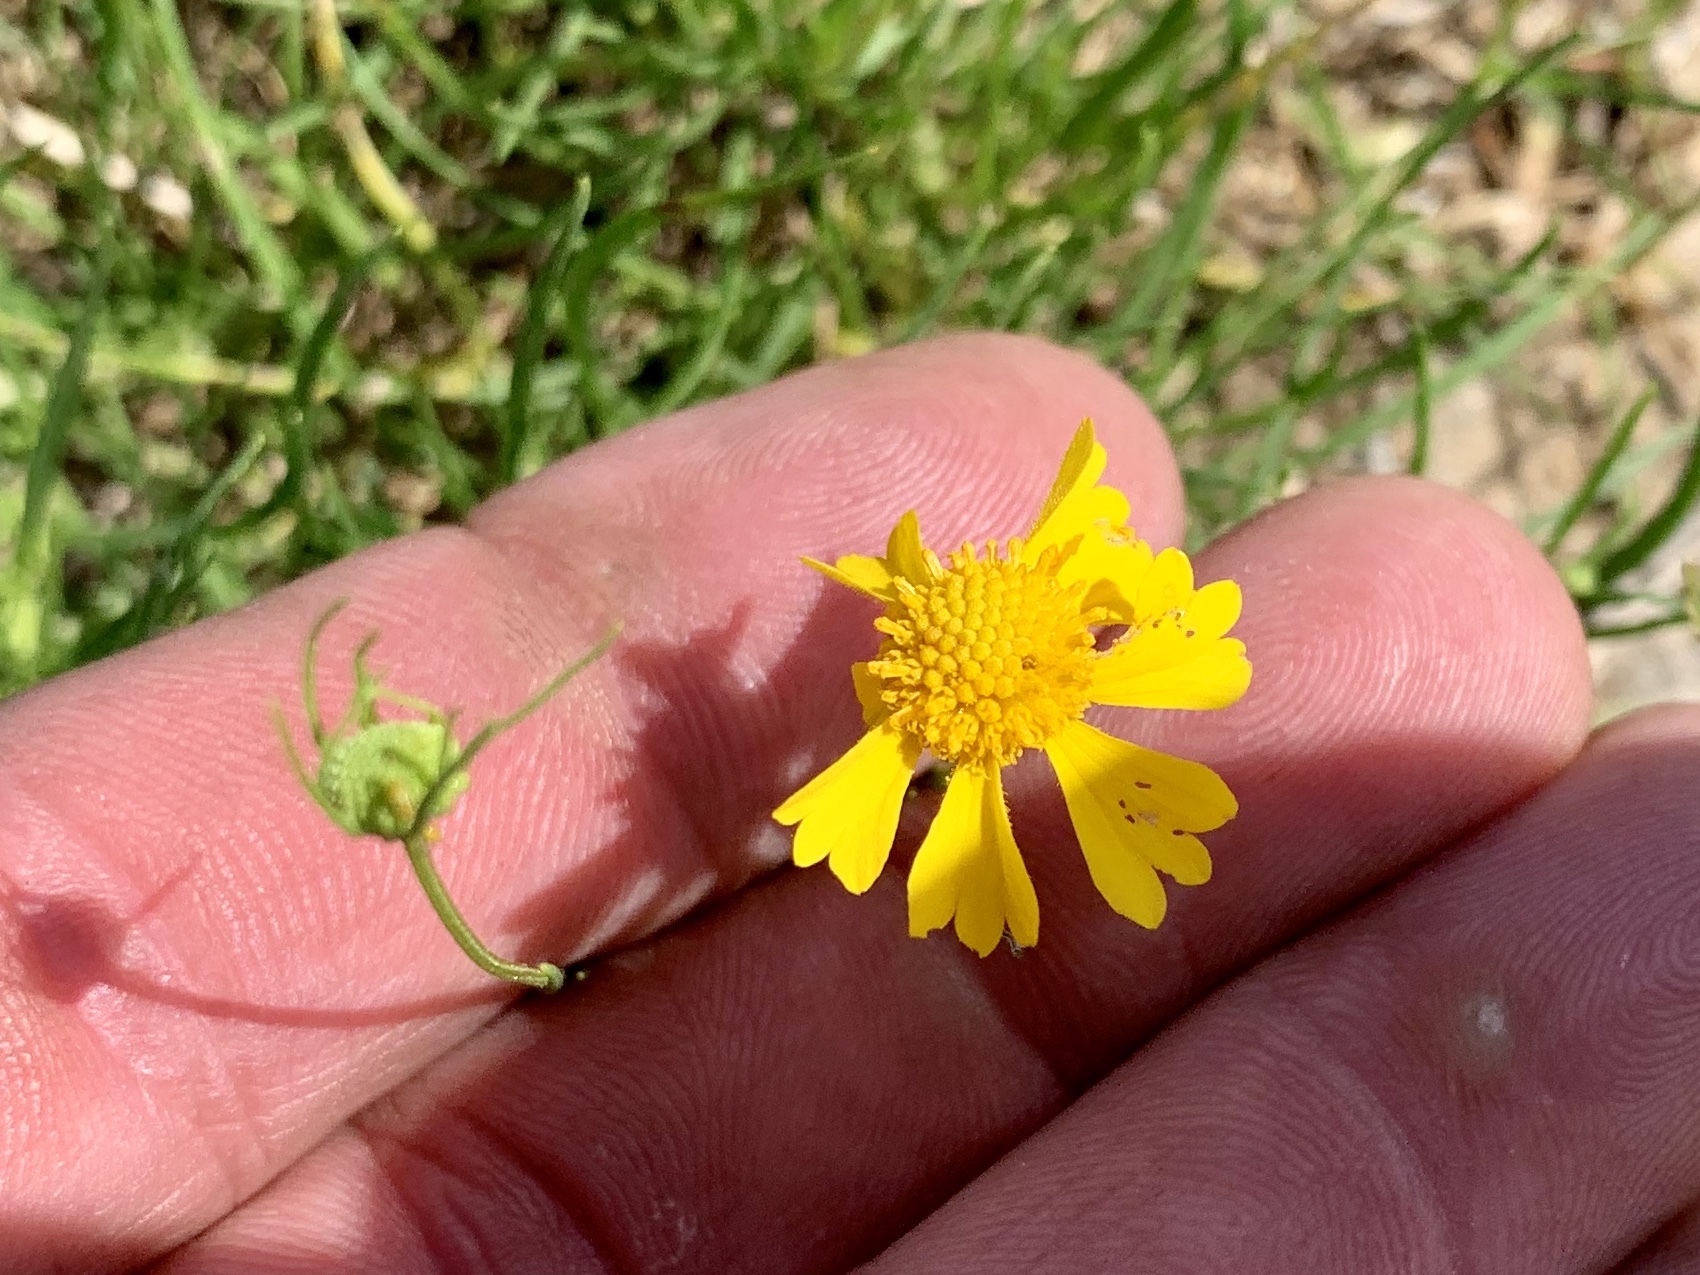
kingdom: Plantae
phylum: Tracheophyta
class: Magnoliopsida
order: Asterales
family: Asteraceae
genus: Helenium
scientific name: Helenium amarum
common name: Bitter sneezeweed
